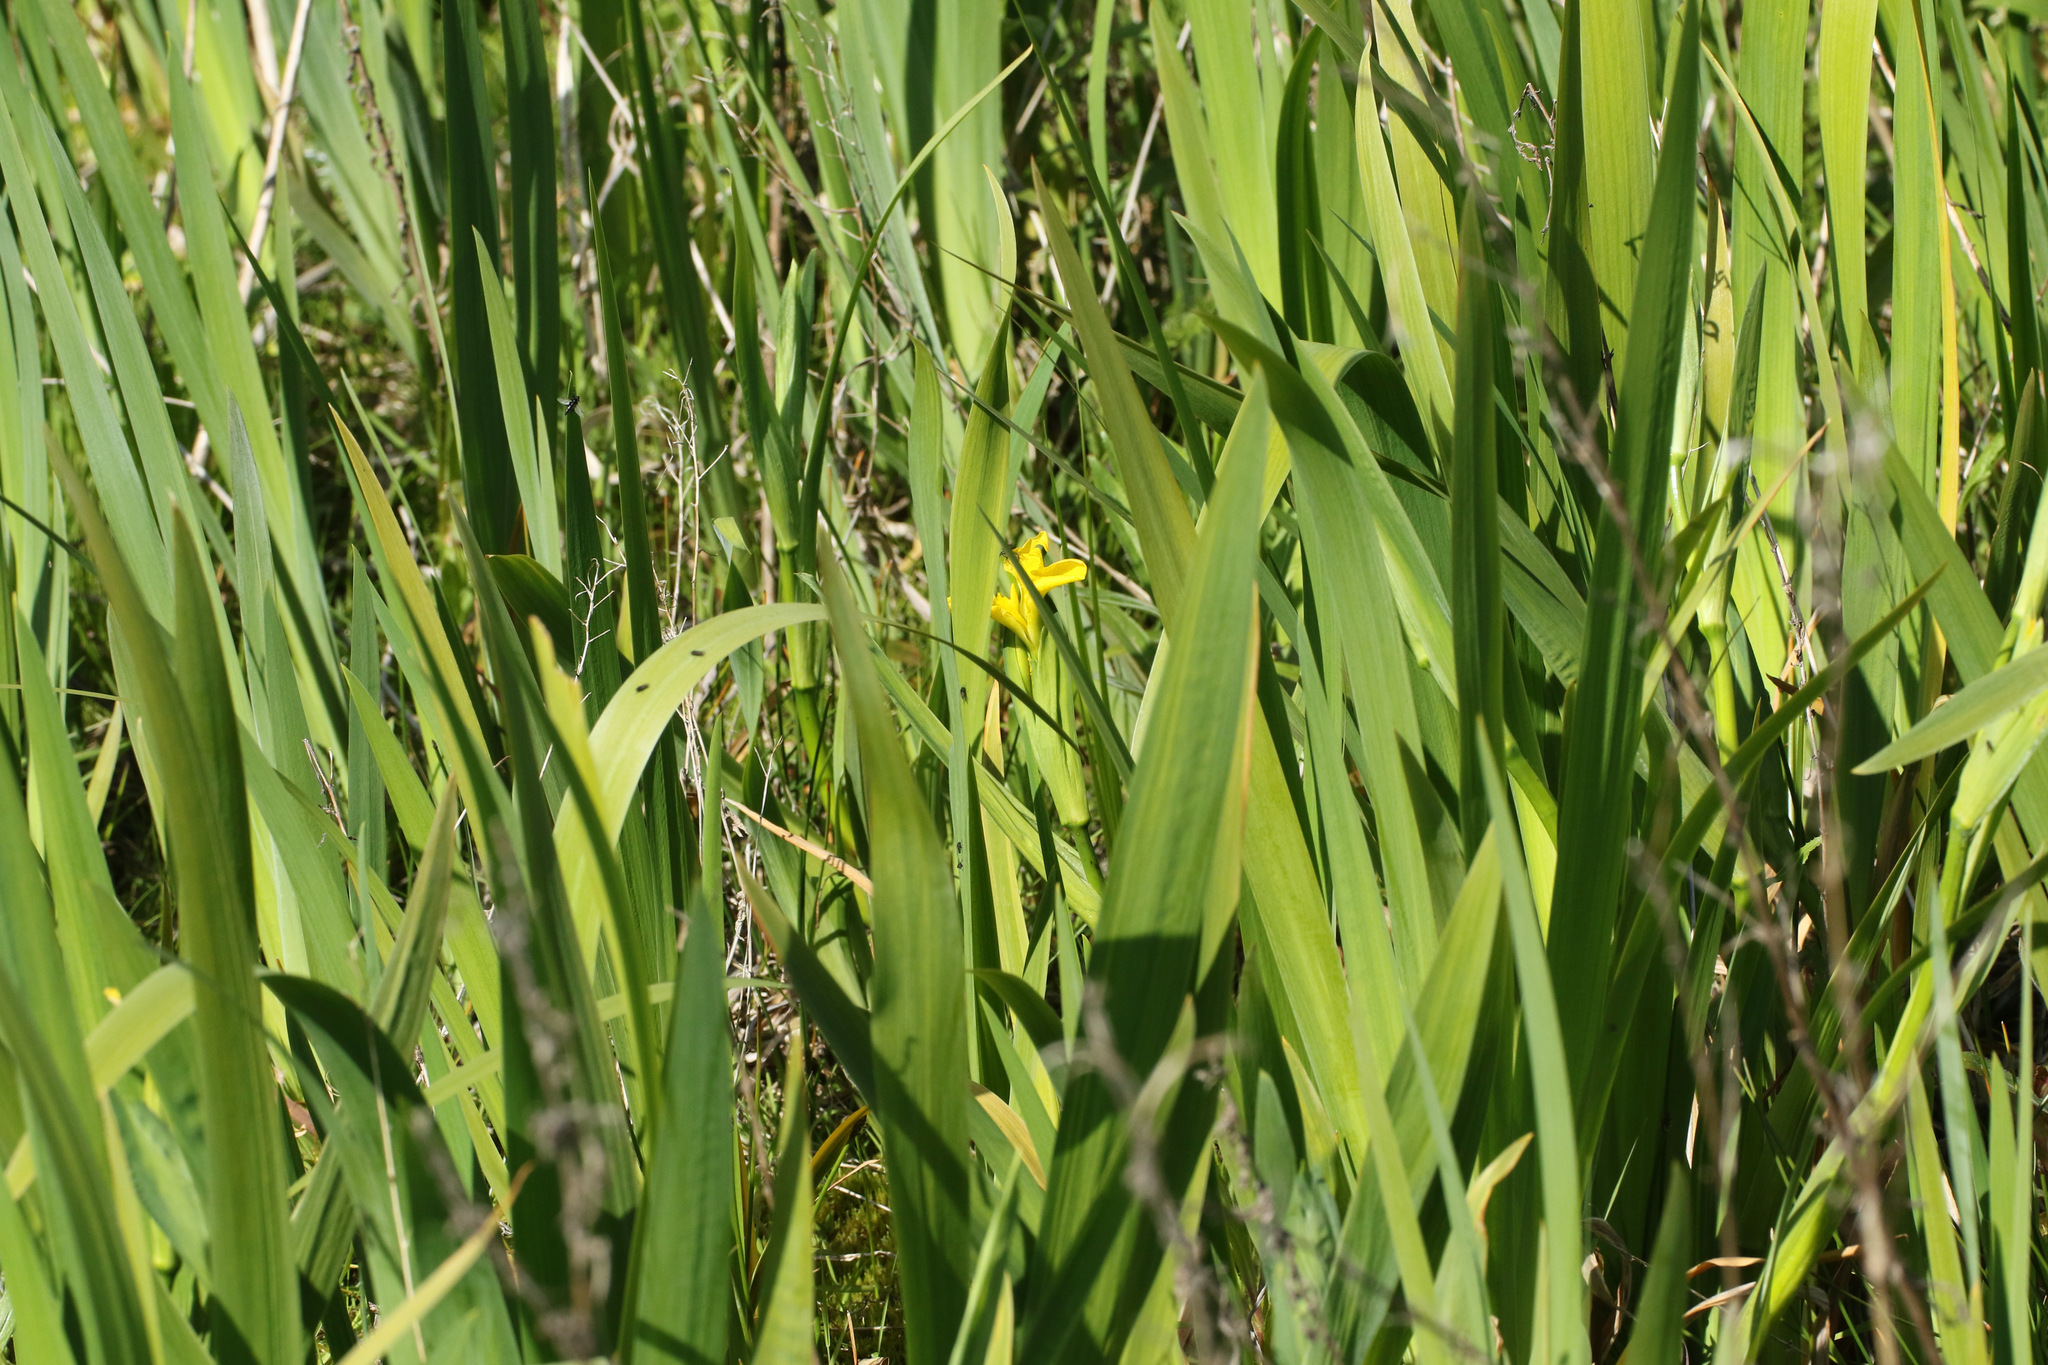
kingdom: Plantae
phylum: Tracheophyta
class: Liliopsida
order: Asparagales
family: Iridaceae
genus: Iris
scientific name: Iris pseudacorus
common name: Yellow flag
